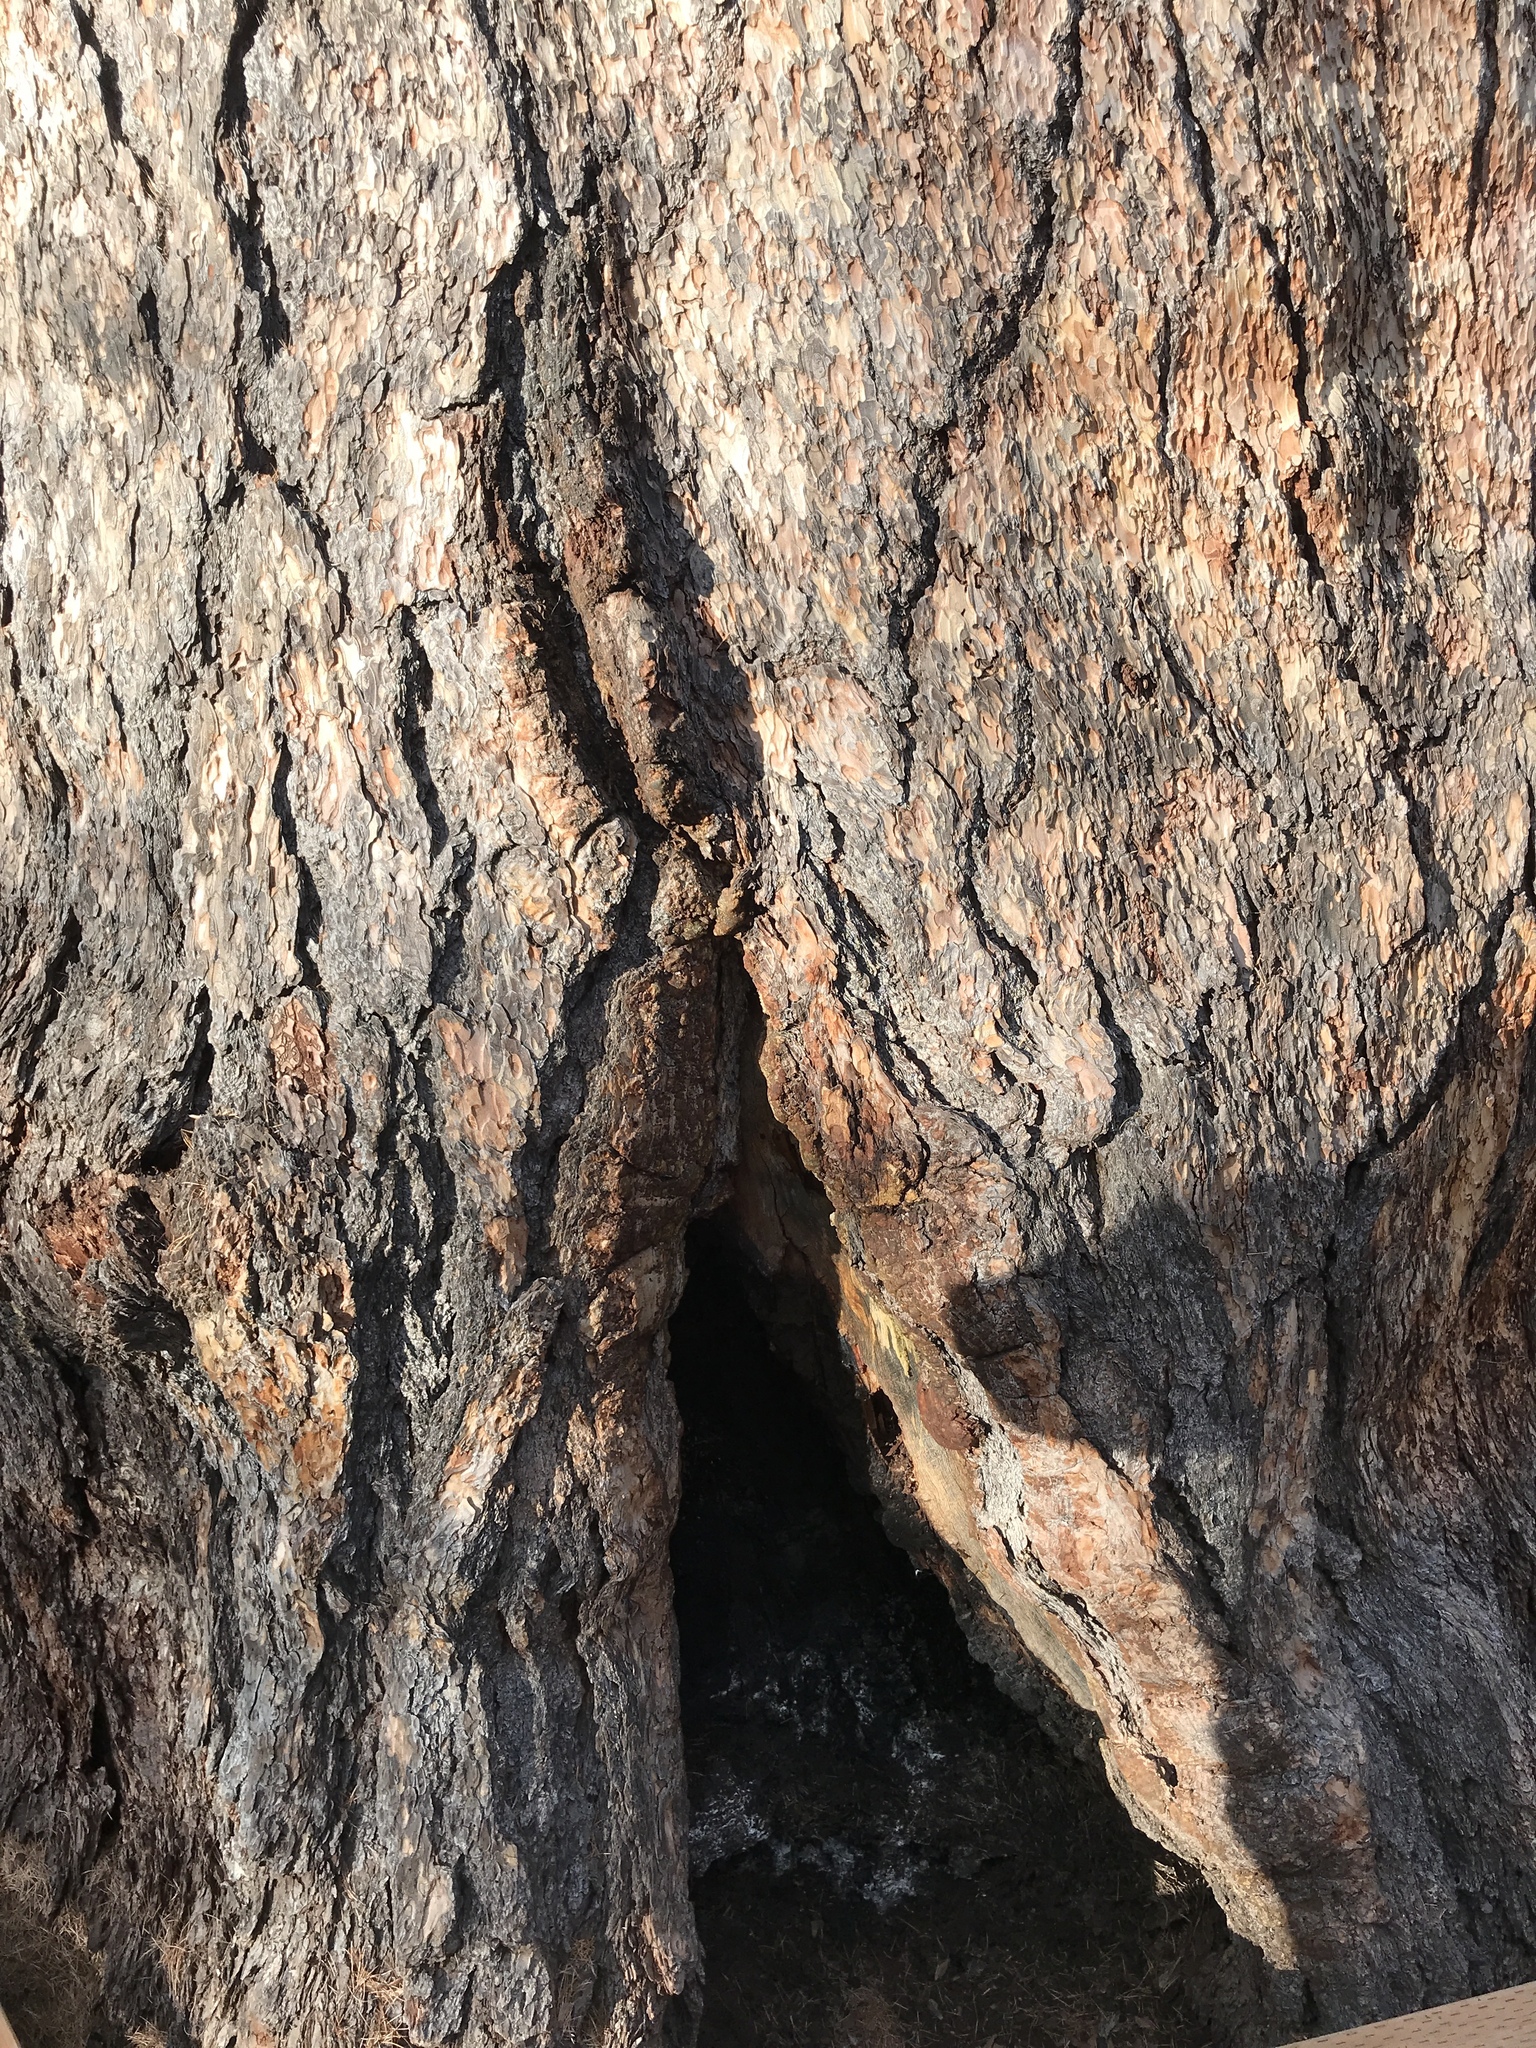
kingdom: Plantae
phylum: Tracheophyta
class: Pinopsida
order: Pinales
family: Pinaceae
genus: Larix
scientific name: Larix occidentalis
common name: Western larch
